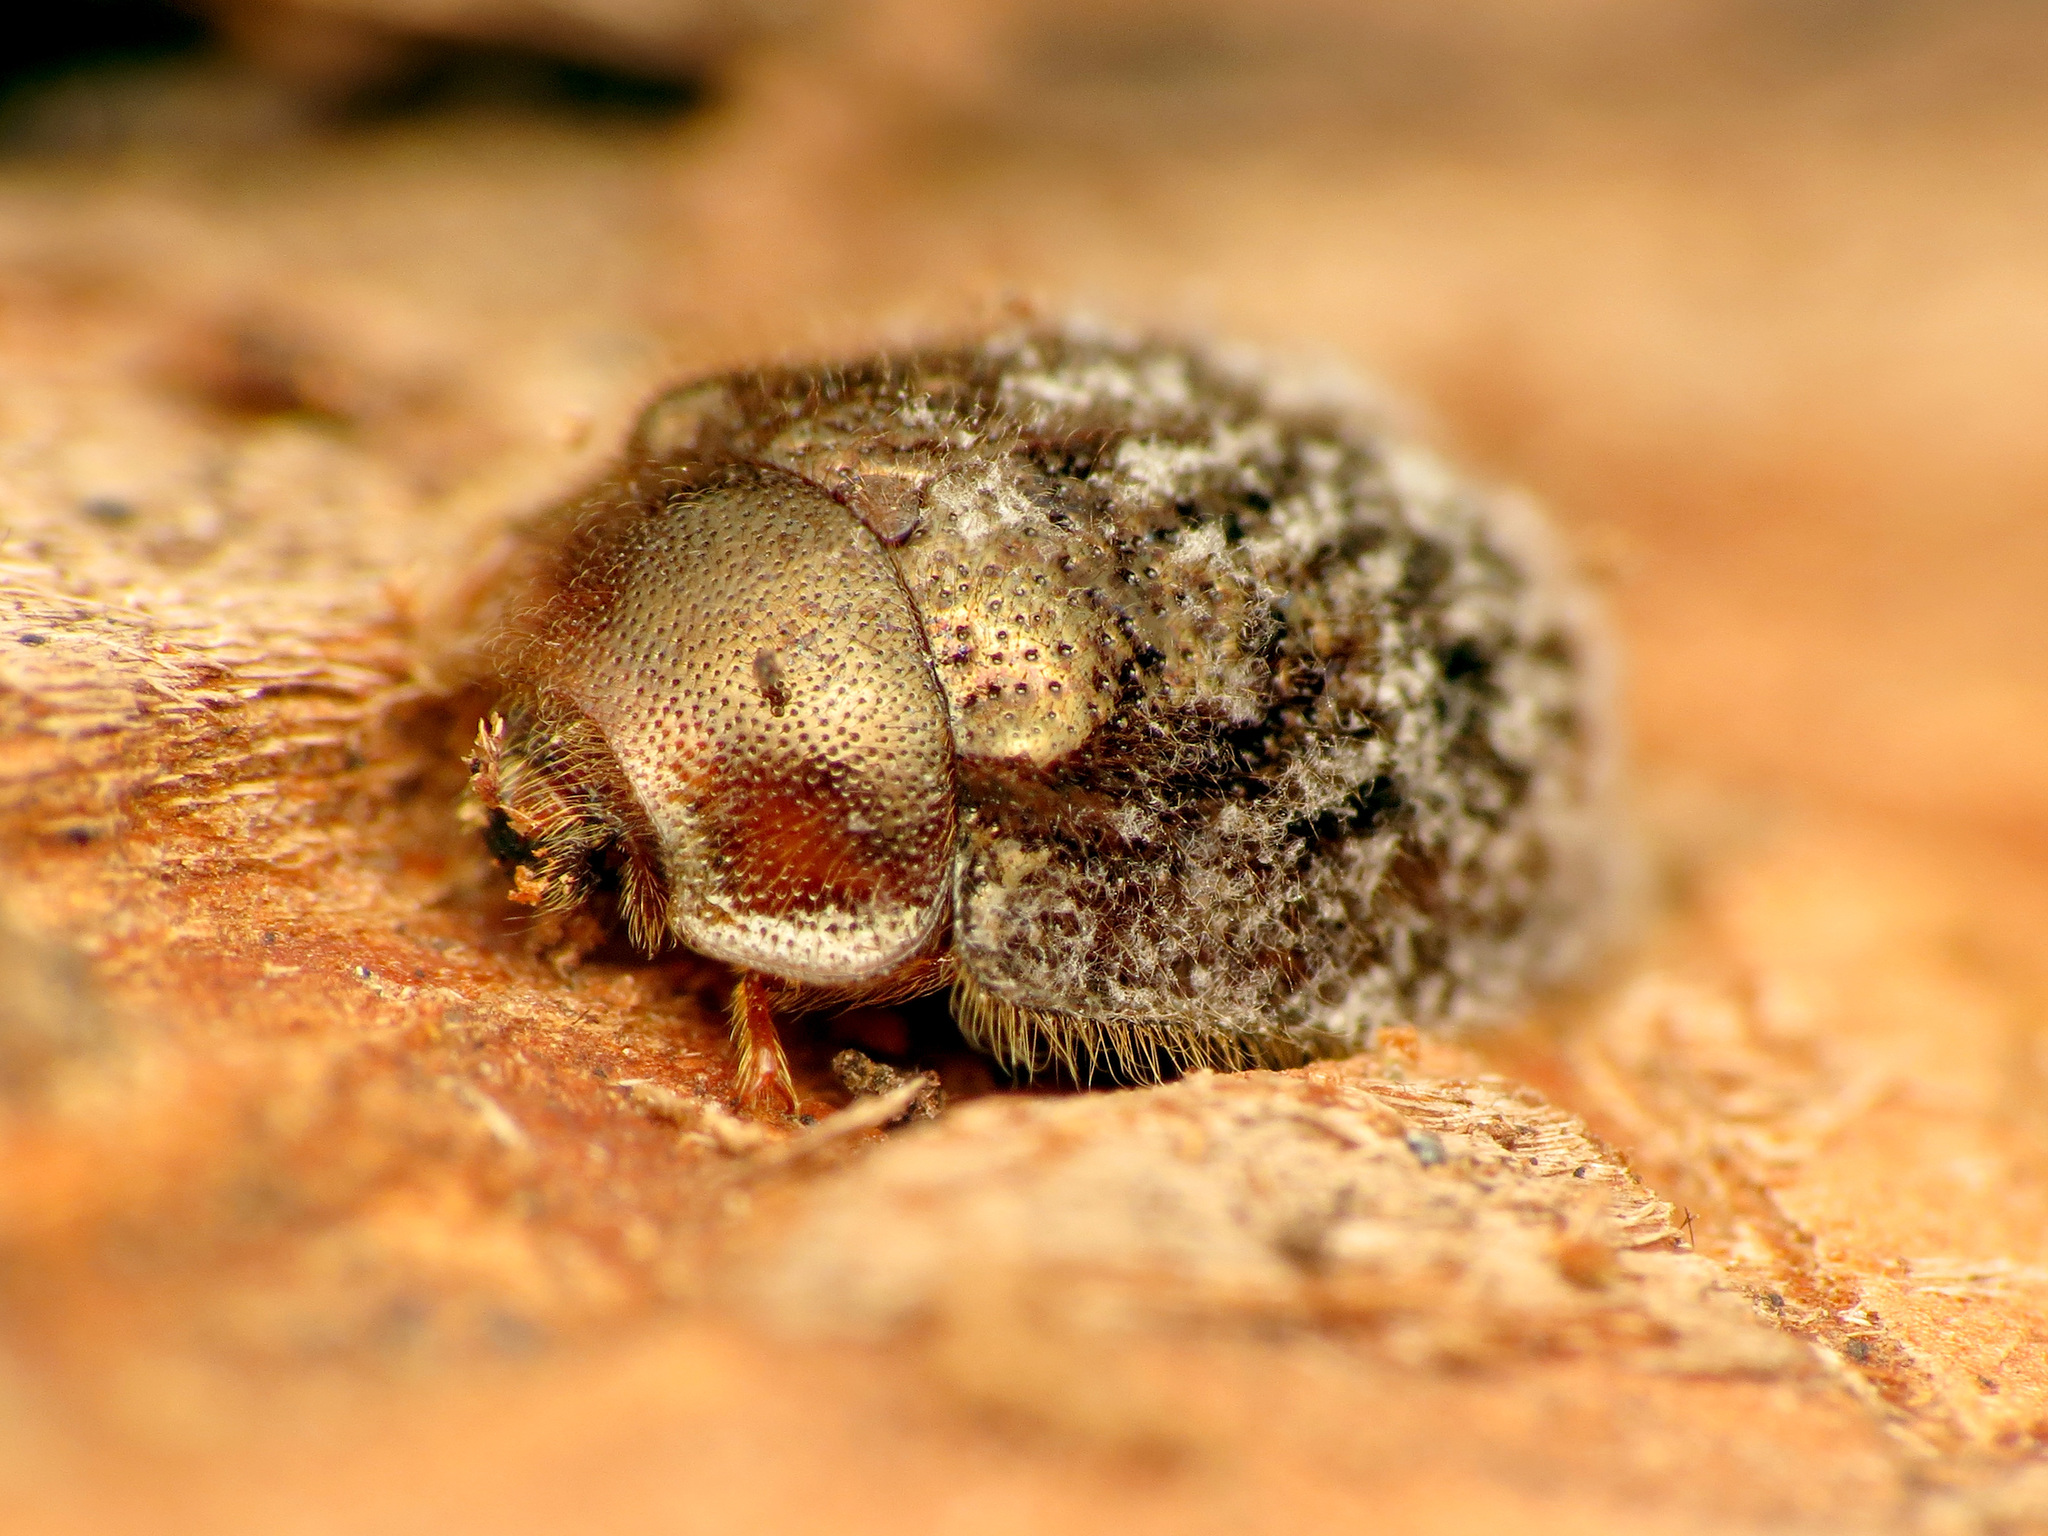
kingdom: Animalia
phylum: Arthropoda
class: Insecta
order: Coleoptera
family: Trogossitidae
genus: Thymalus
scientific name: Thymalus marginicollis
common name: Bark-gnawing beetle
